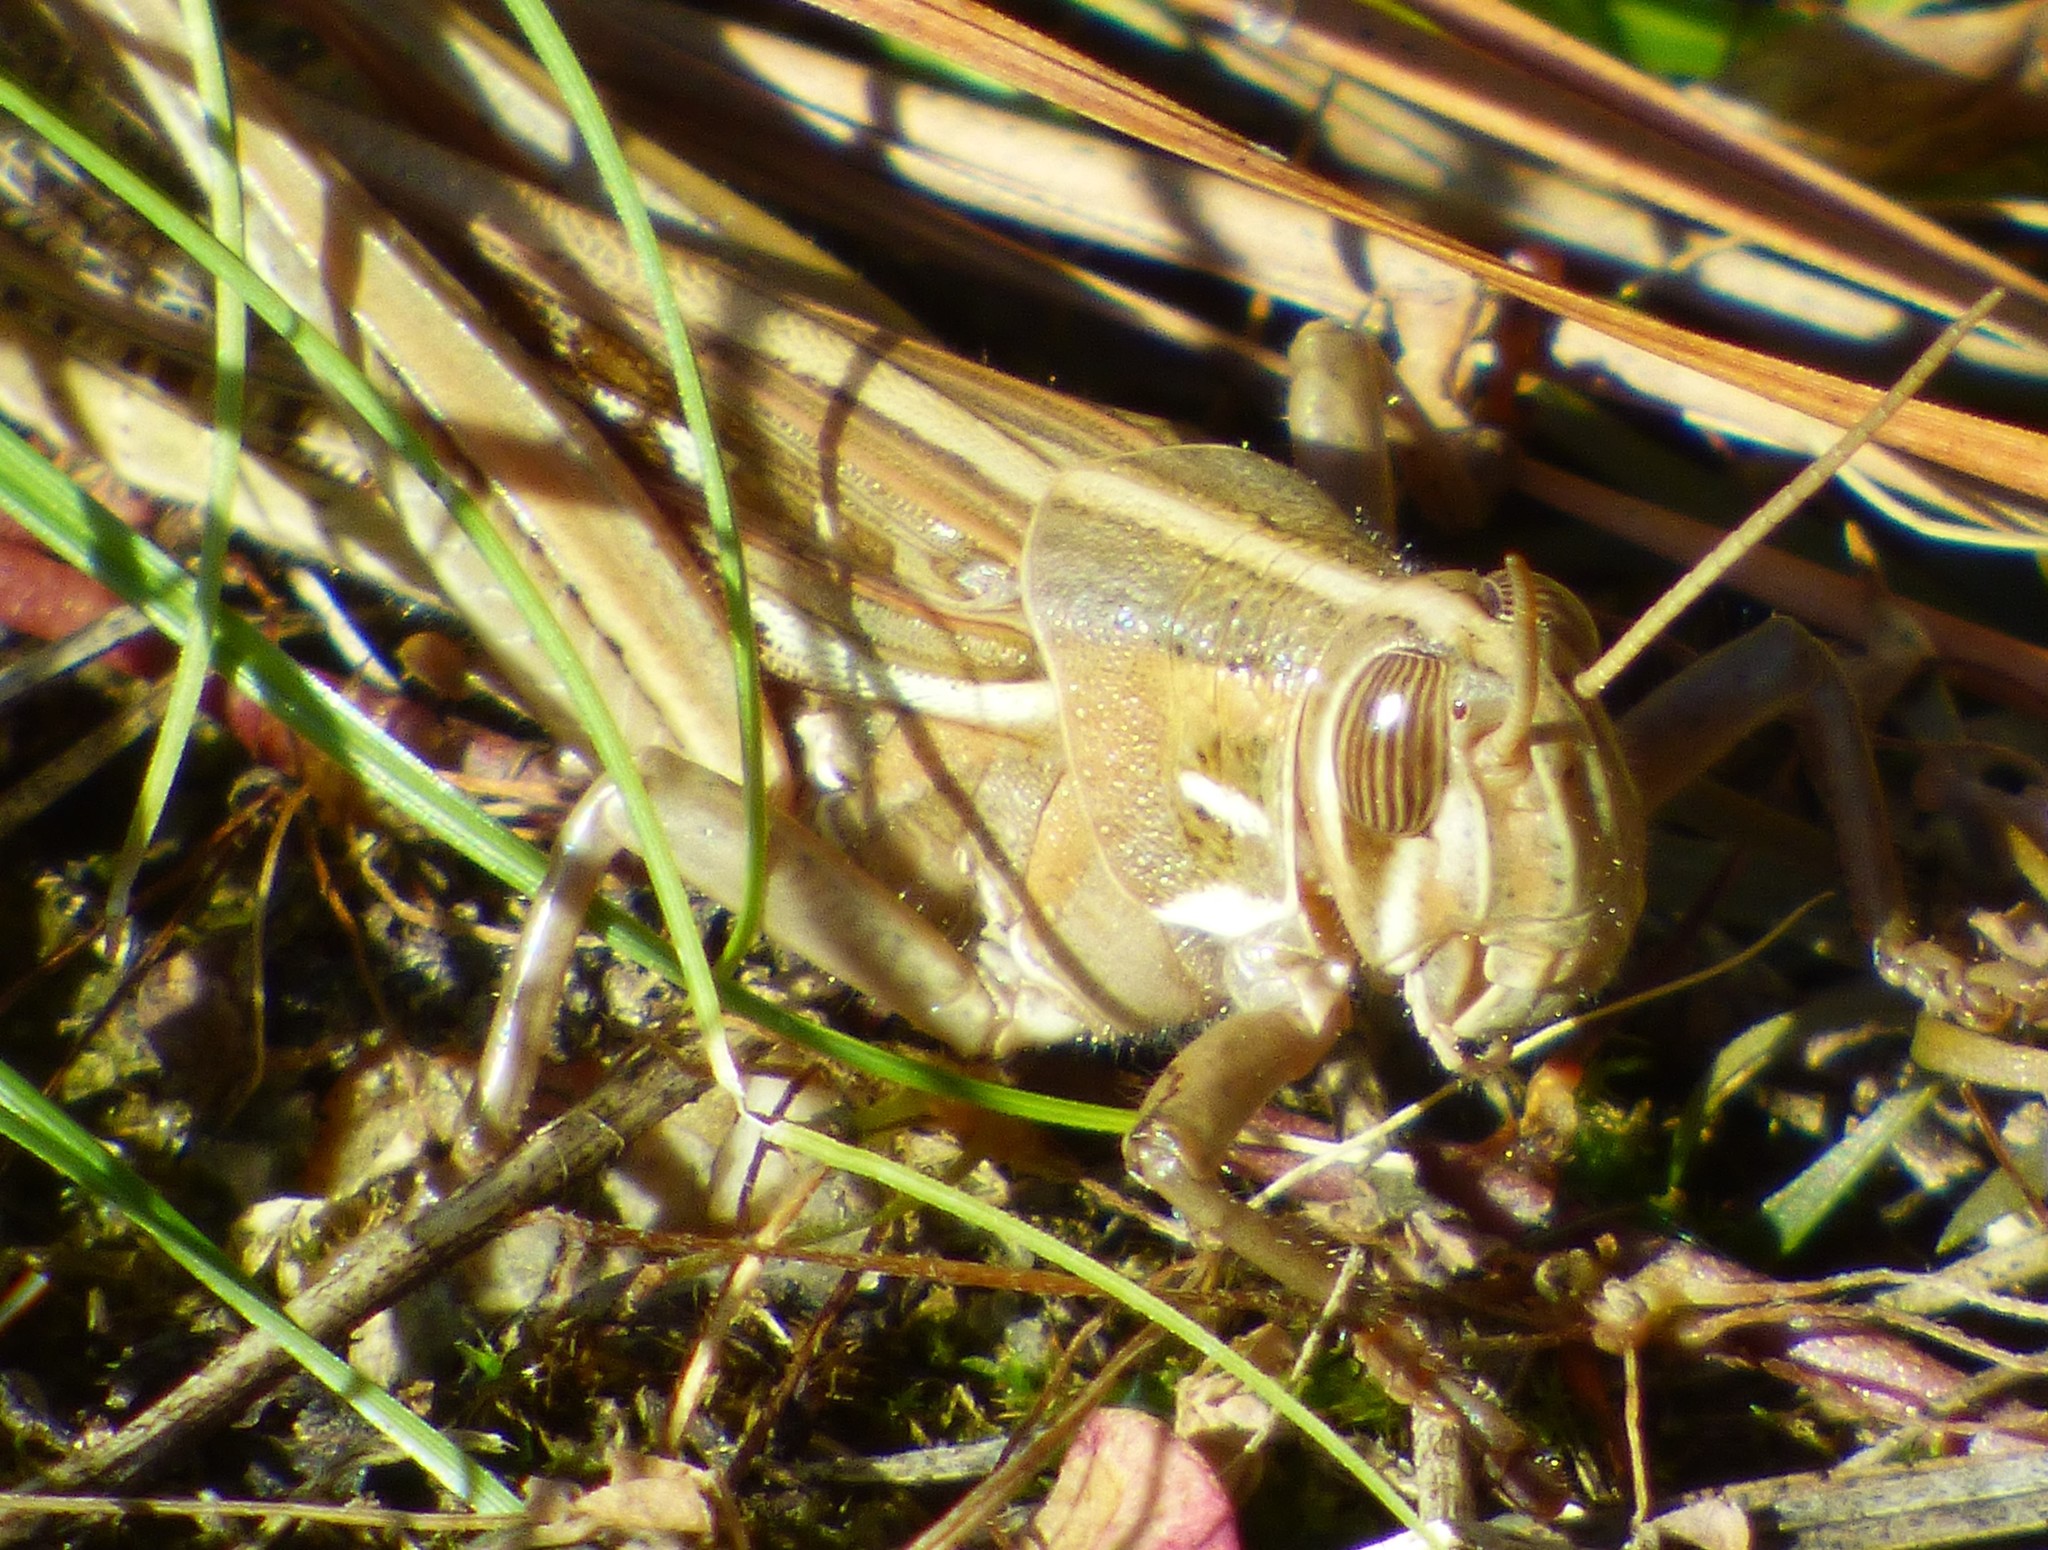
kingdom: Animalia
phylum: Arthropoda
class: Insecta
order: Orthoptera
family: Acrididae
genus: Schistocerca
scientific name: Schistocerca americana
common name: American bird locust
